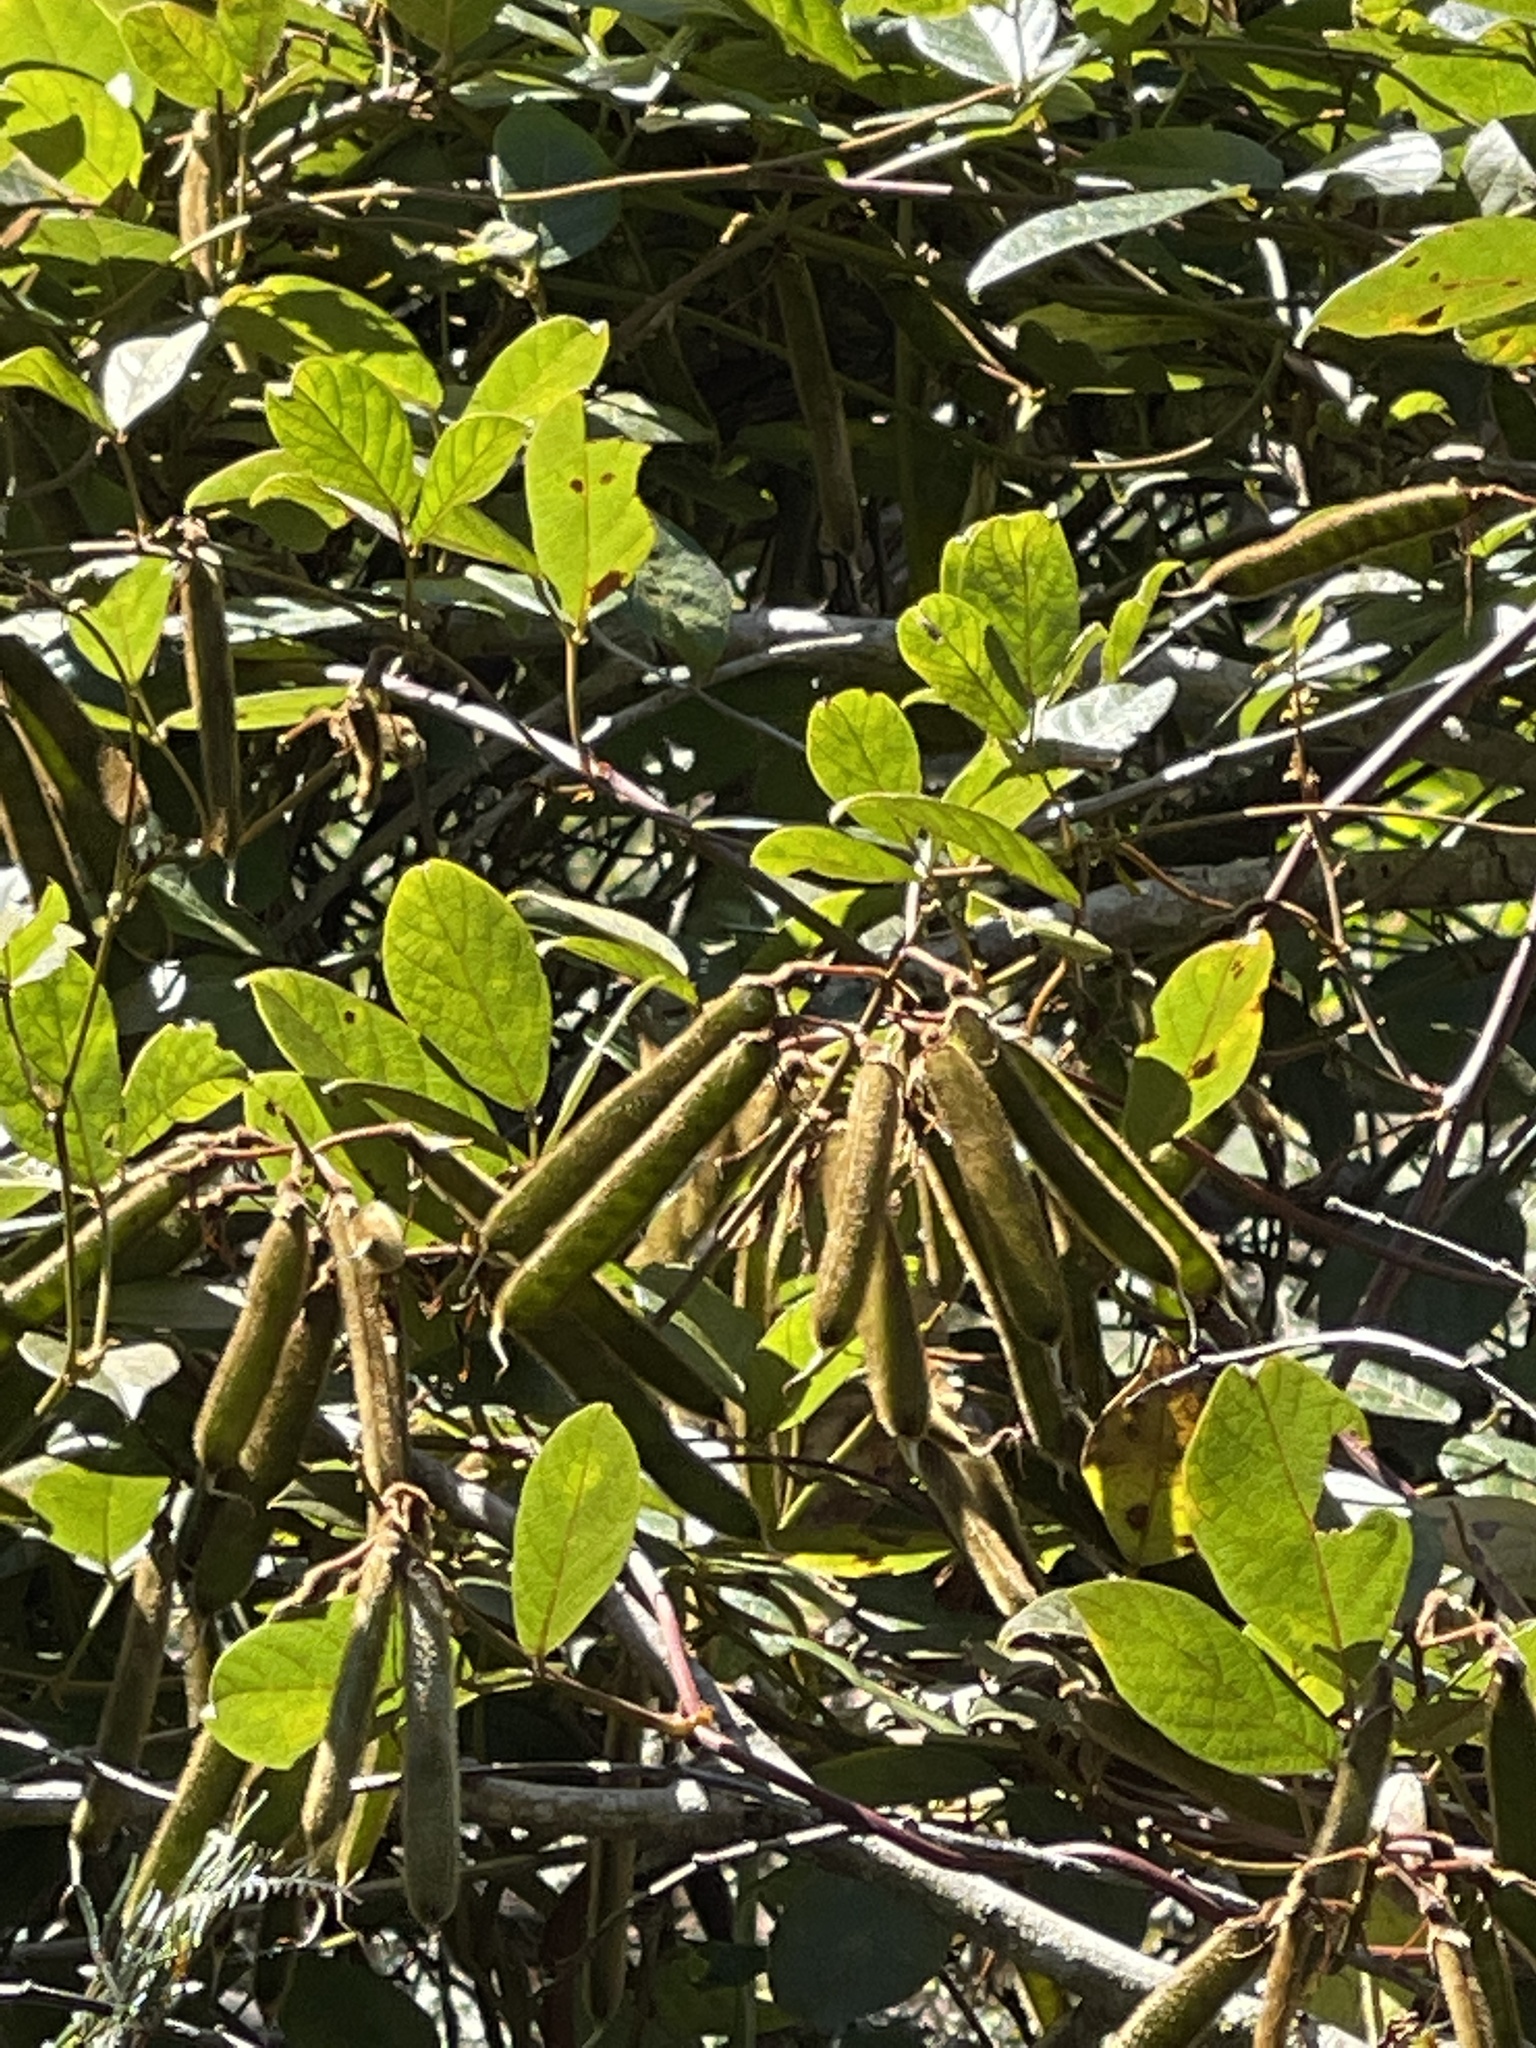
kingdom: Plantae
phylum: Tracheophyta
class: Magnoliopsida
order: Fabales
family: Fabaceae
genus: Kennedia
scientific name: Kennedia rubicunda
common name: Red kennedy-pea
